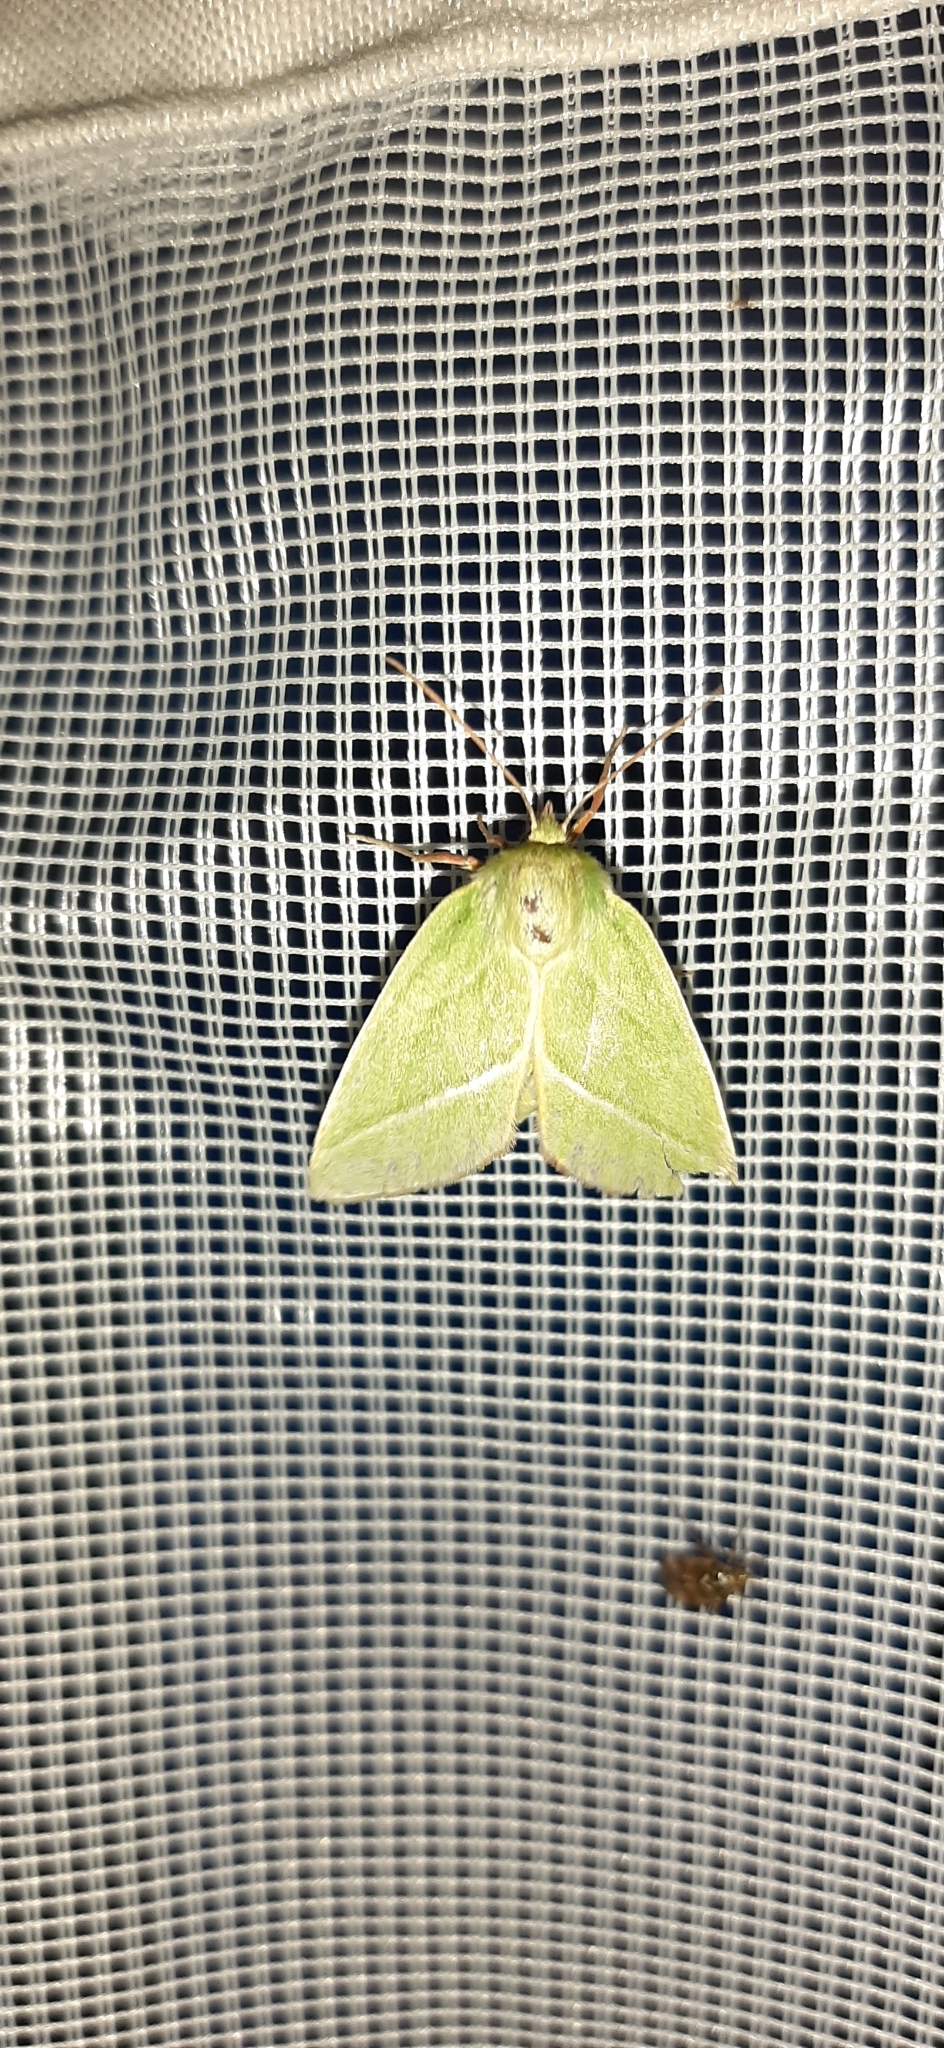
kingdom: Animalia
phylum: Arthropoda
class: Insecta
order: Lepidoptera
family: Nolidae
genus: Pseudoips
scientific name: Pseudoips prasinana
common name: Green silver-lines
